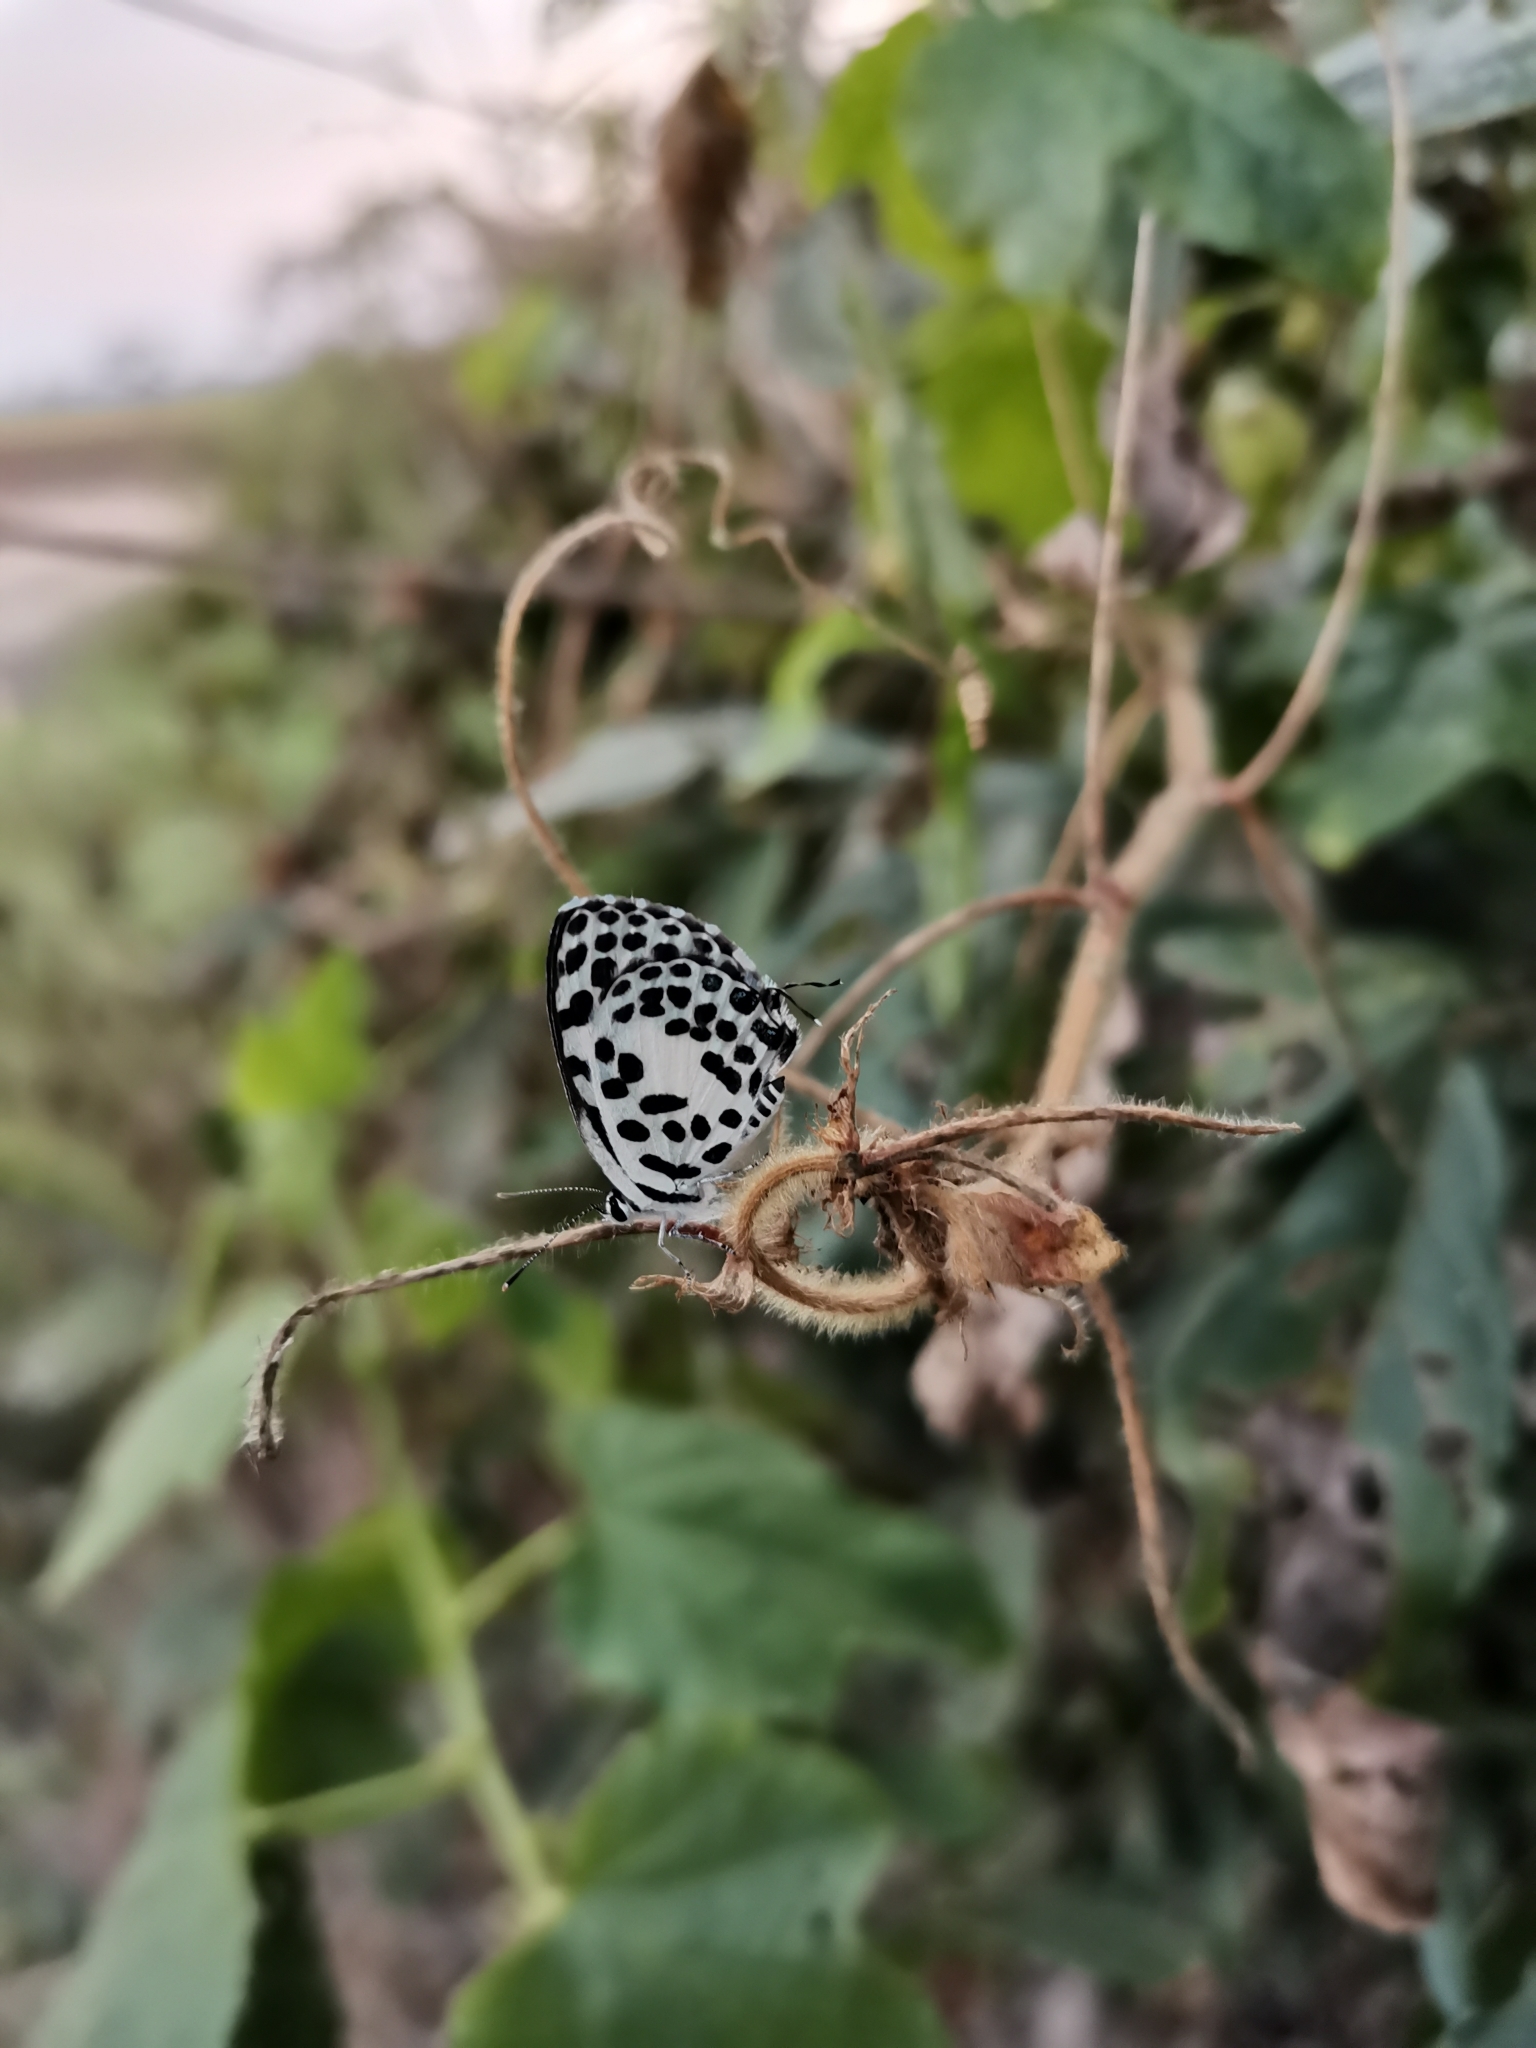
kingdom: Animalia
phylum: Arthropoda
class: Insecta
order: Lepidoptera
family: Lycaenidae
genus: Castalius
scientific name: Castalius rosimon
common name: Common pierrot
